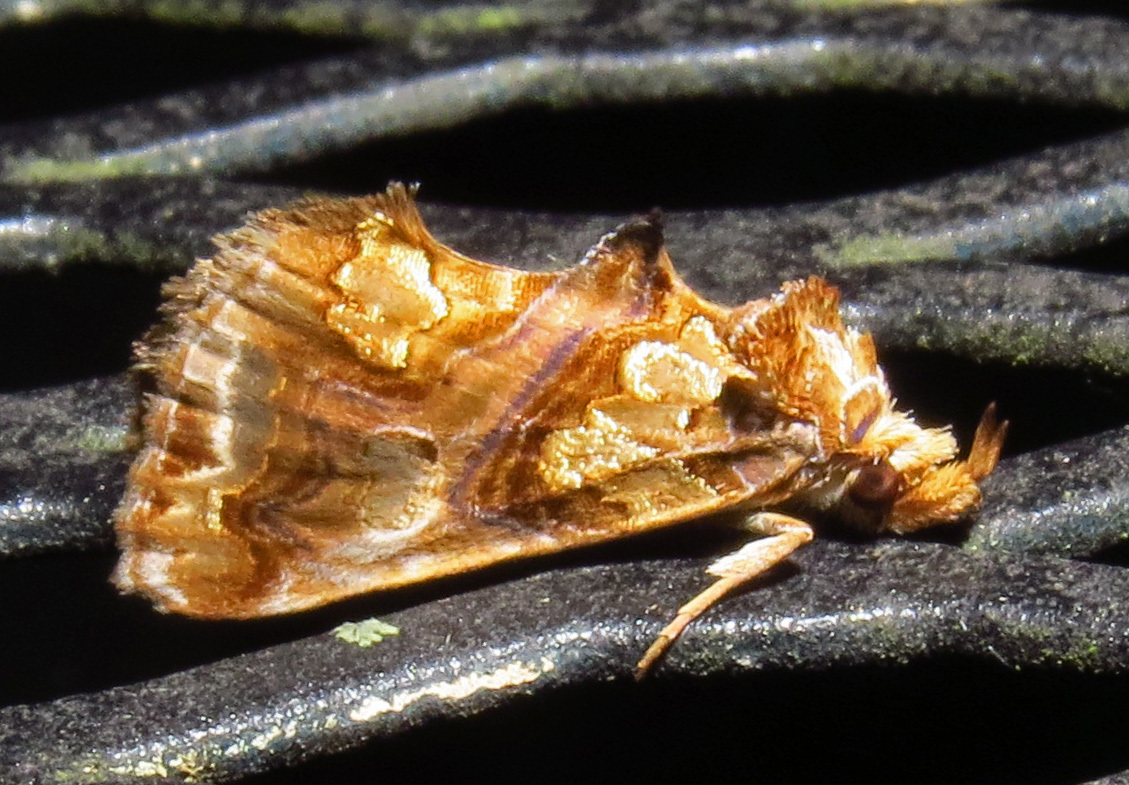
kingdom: Animalia
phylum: Arthropoda
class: Insecta
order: Lepidoptera
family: Erebidae
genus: Plusiodonta
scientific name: Plusiodonta compressipalpis
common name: Moonseed moth
